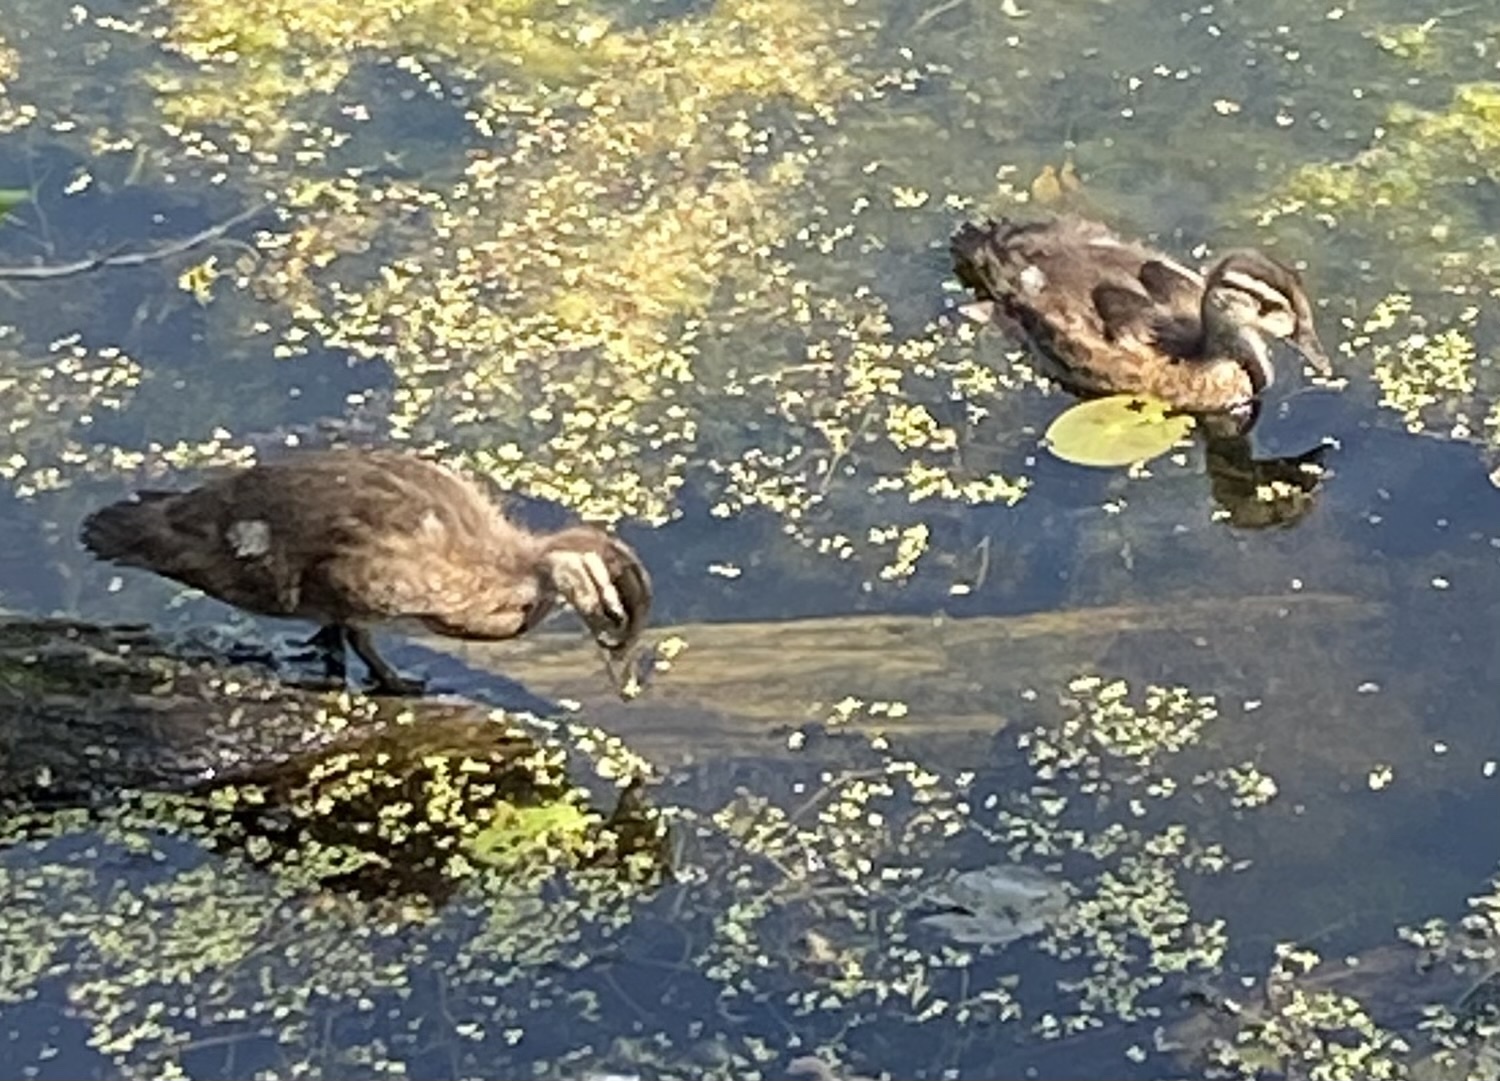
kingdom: Animalia
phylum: Chordata
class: Aves
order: Anseriformes
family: Anatidae
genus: Aix
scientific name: Aix sponsa
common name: Wood duck
